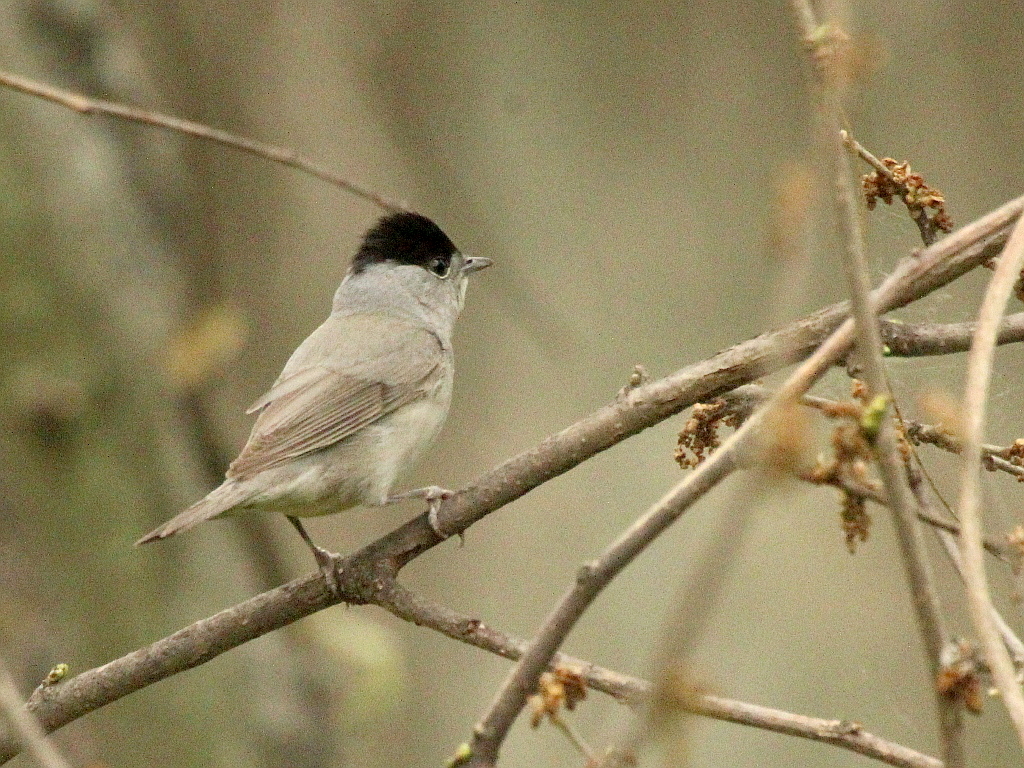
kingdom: Animalia
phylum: Chordata
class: Aves
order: Passeriformes
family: Sylviidae
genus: Sylvia
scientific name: Sylvia atricapilla
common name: Eurasian blackcap
